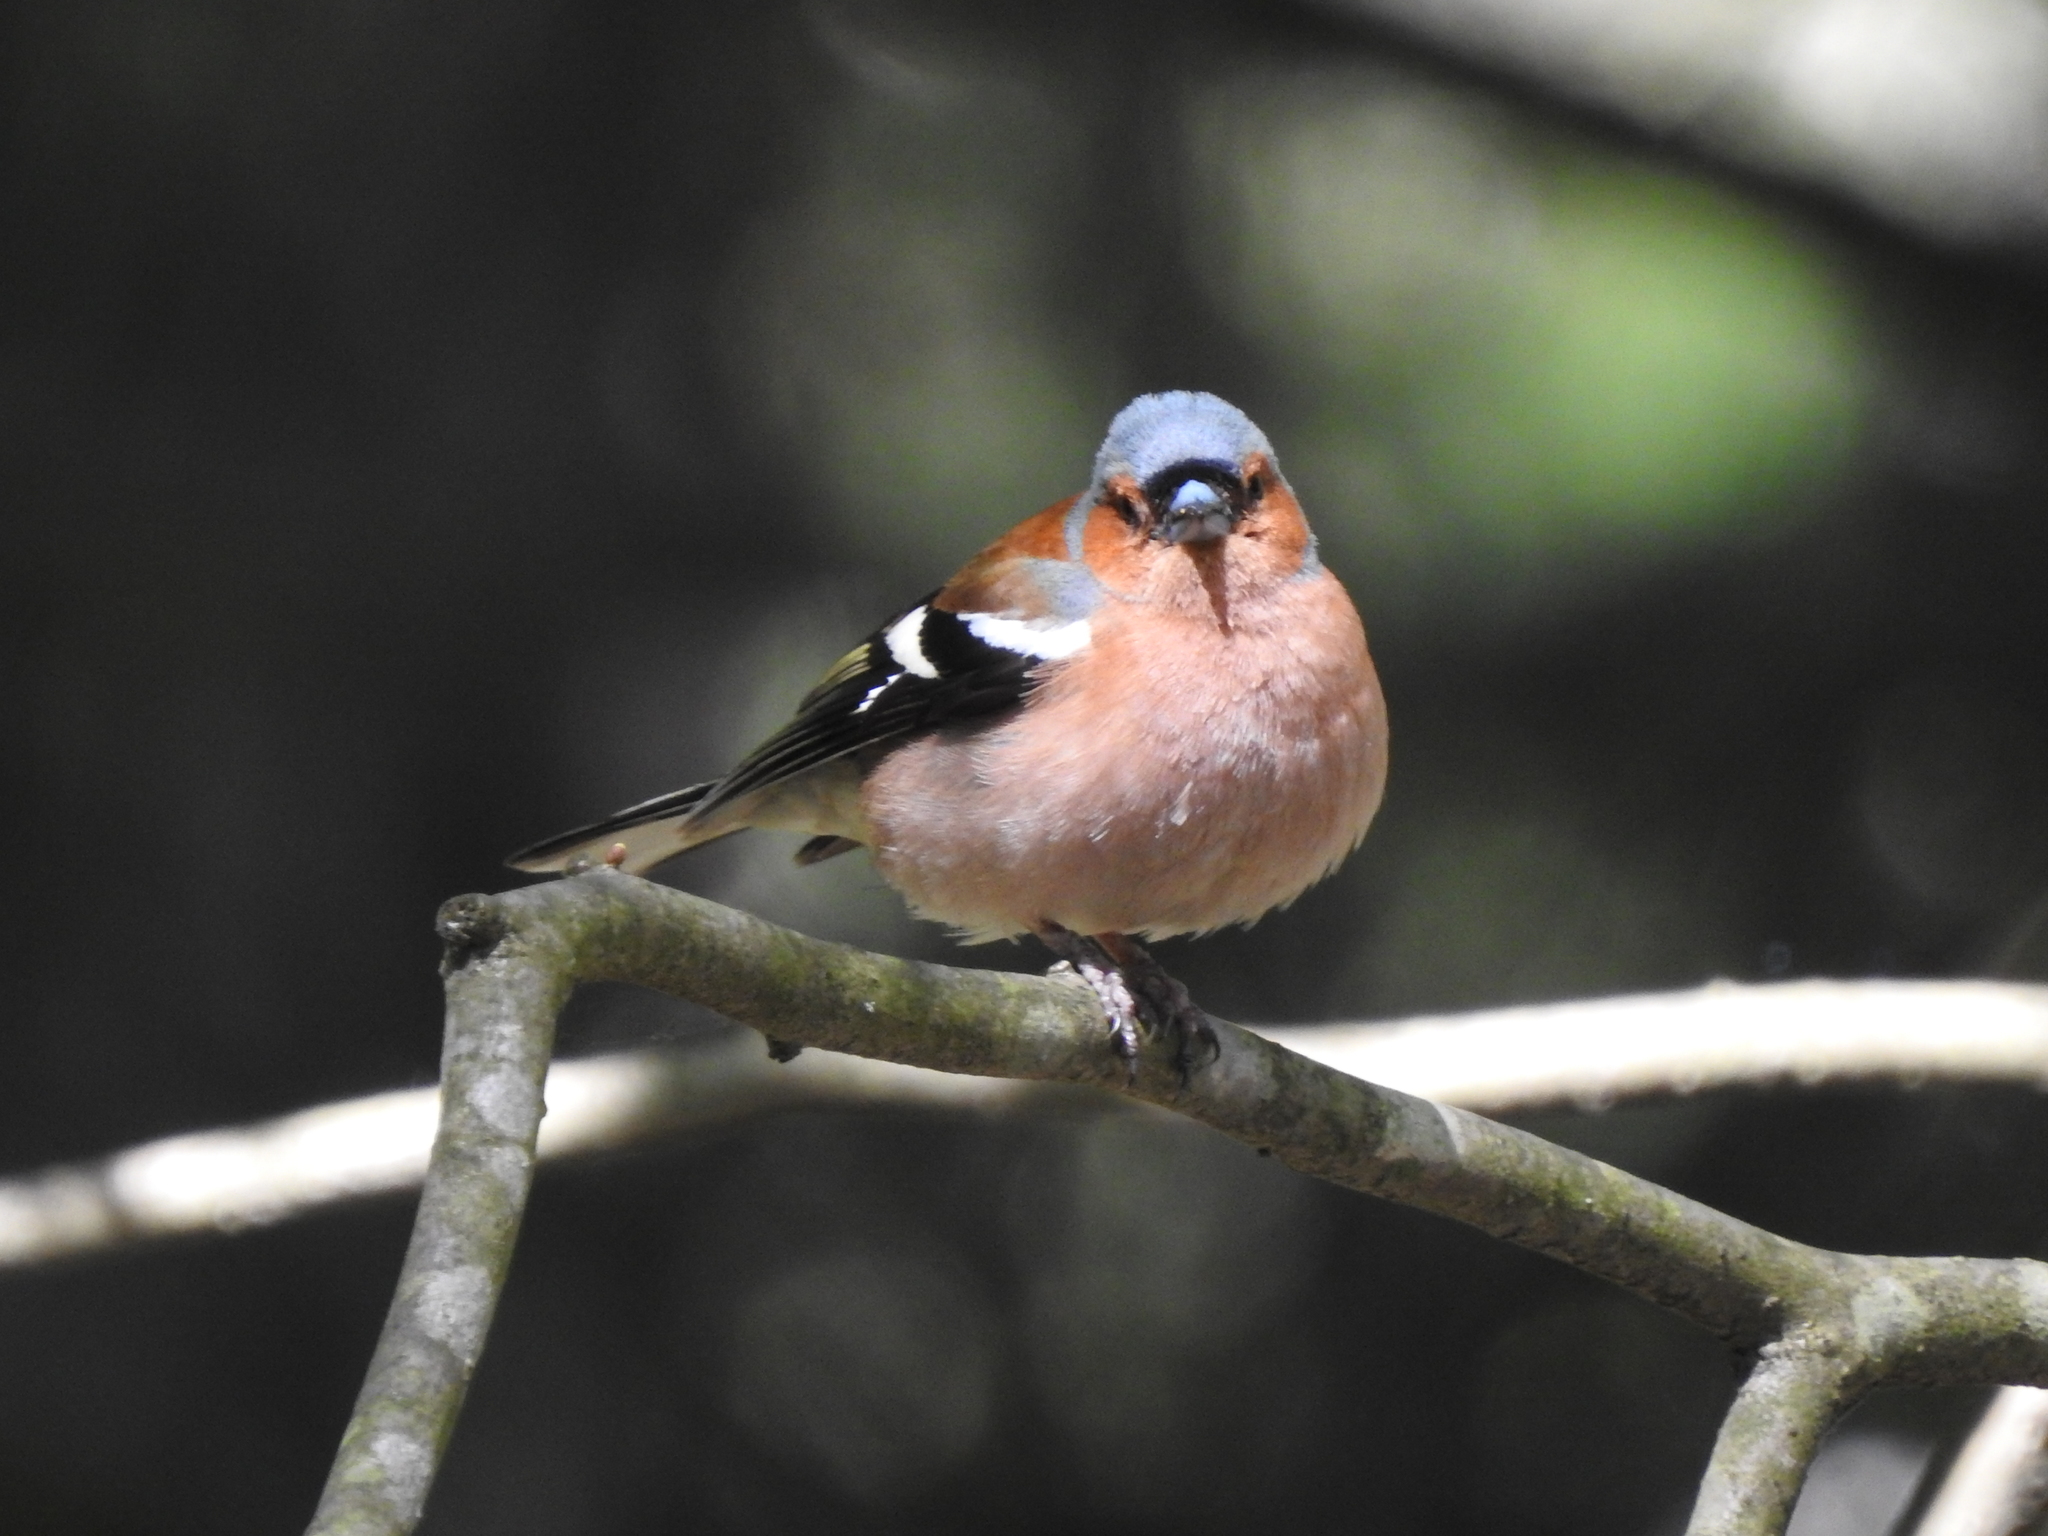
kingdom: Animalia
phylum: Chordata
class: Aves
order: Passeriformes
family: Fringillidae
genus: Fringilla
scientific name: Fringilla coelebs
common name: Common chaffinch
